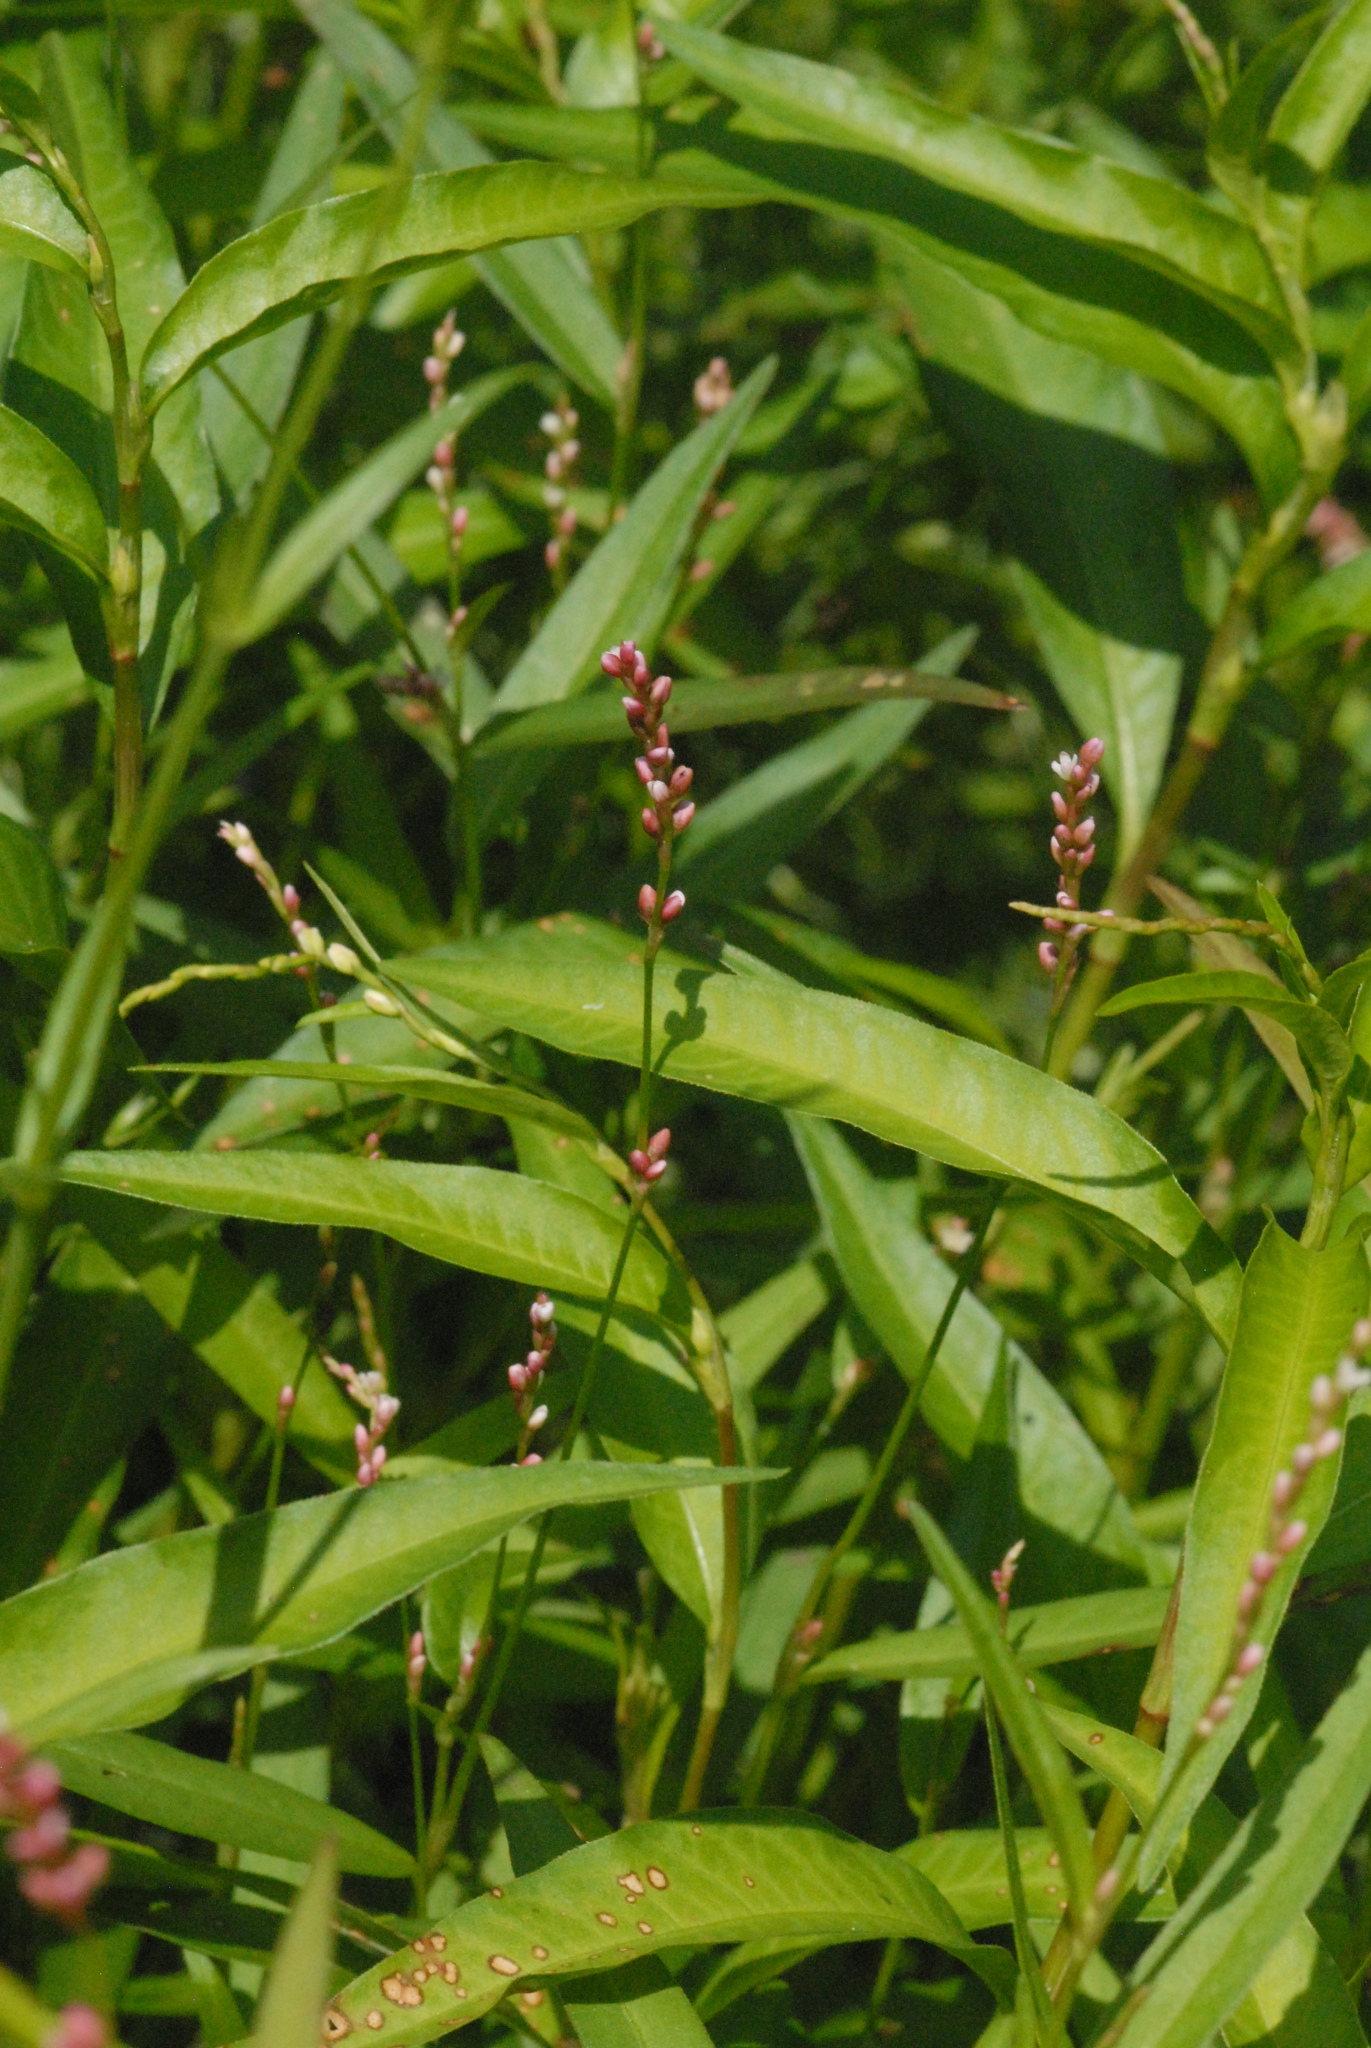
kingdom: Plantae
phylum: Tracheophyta
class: Magnoliopsida
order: Caryophyllales
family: Polygonaceae
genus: Persicaria
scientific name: Persicaria minor
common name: Small water-pepper
